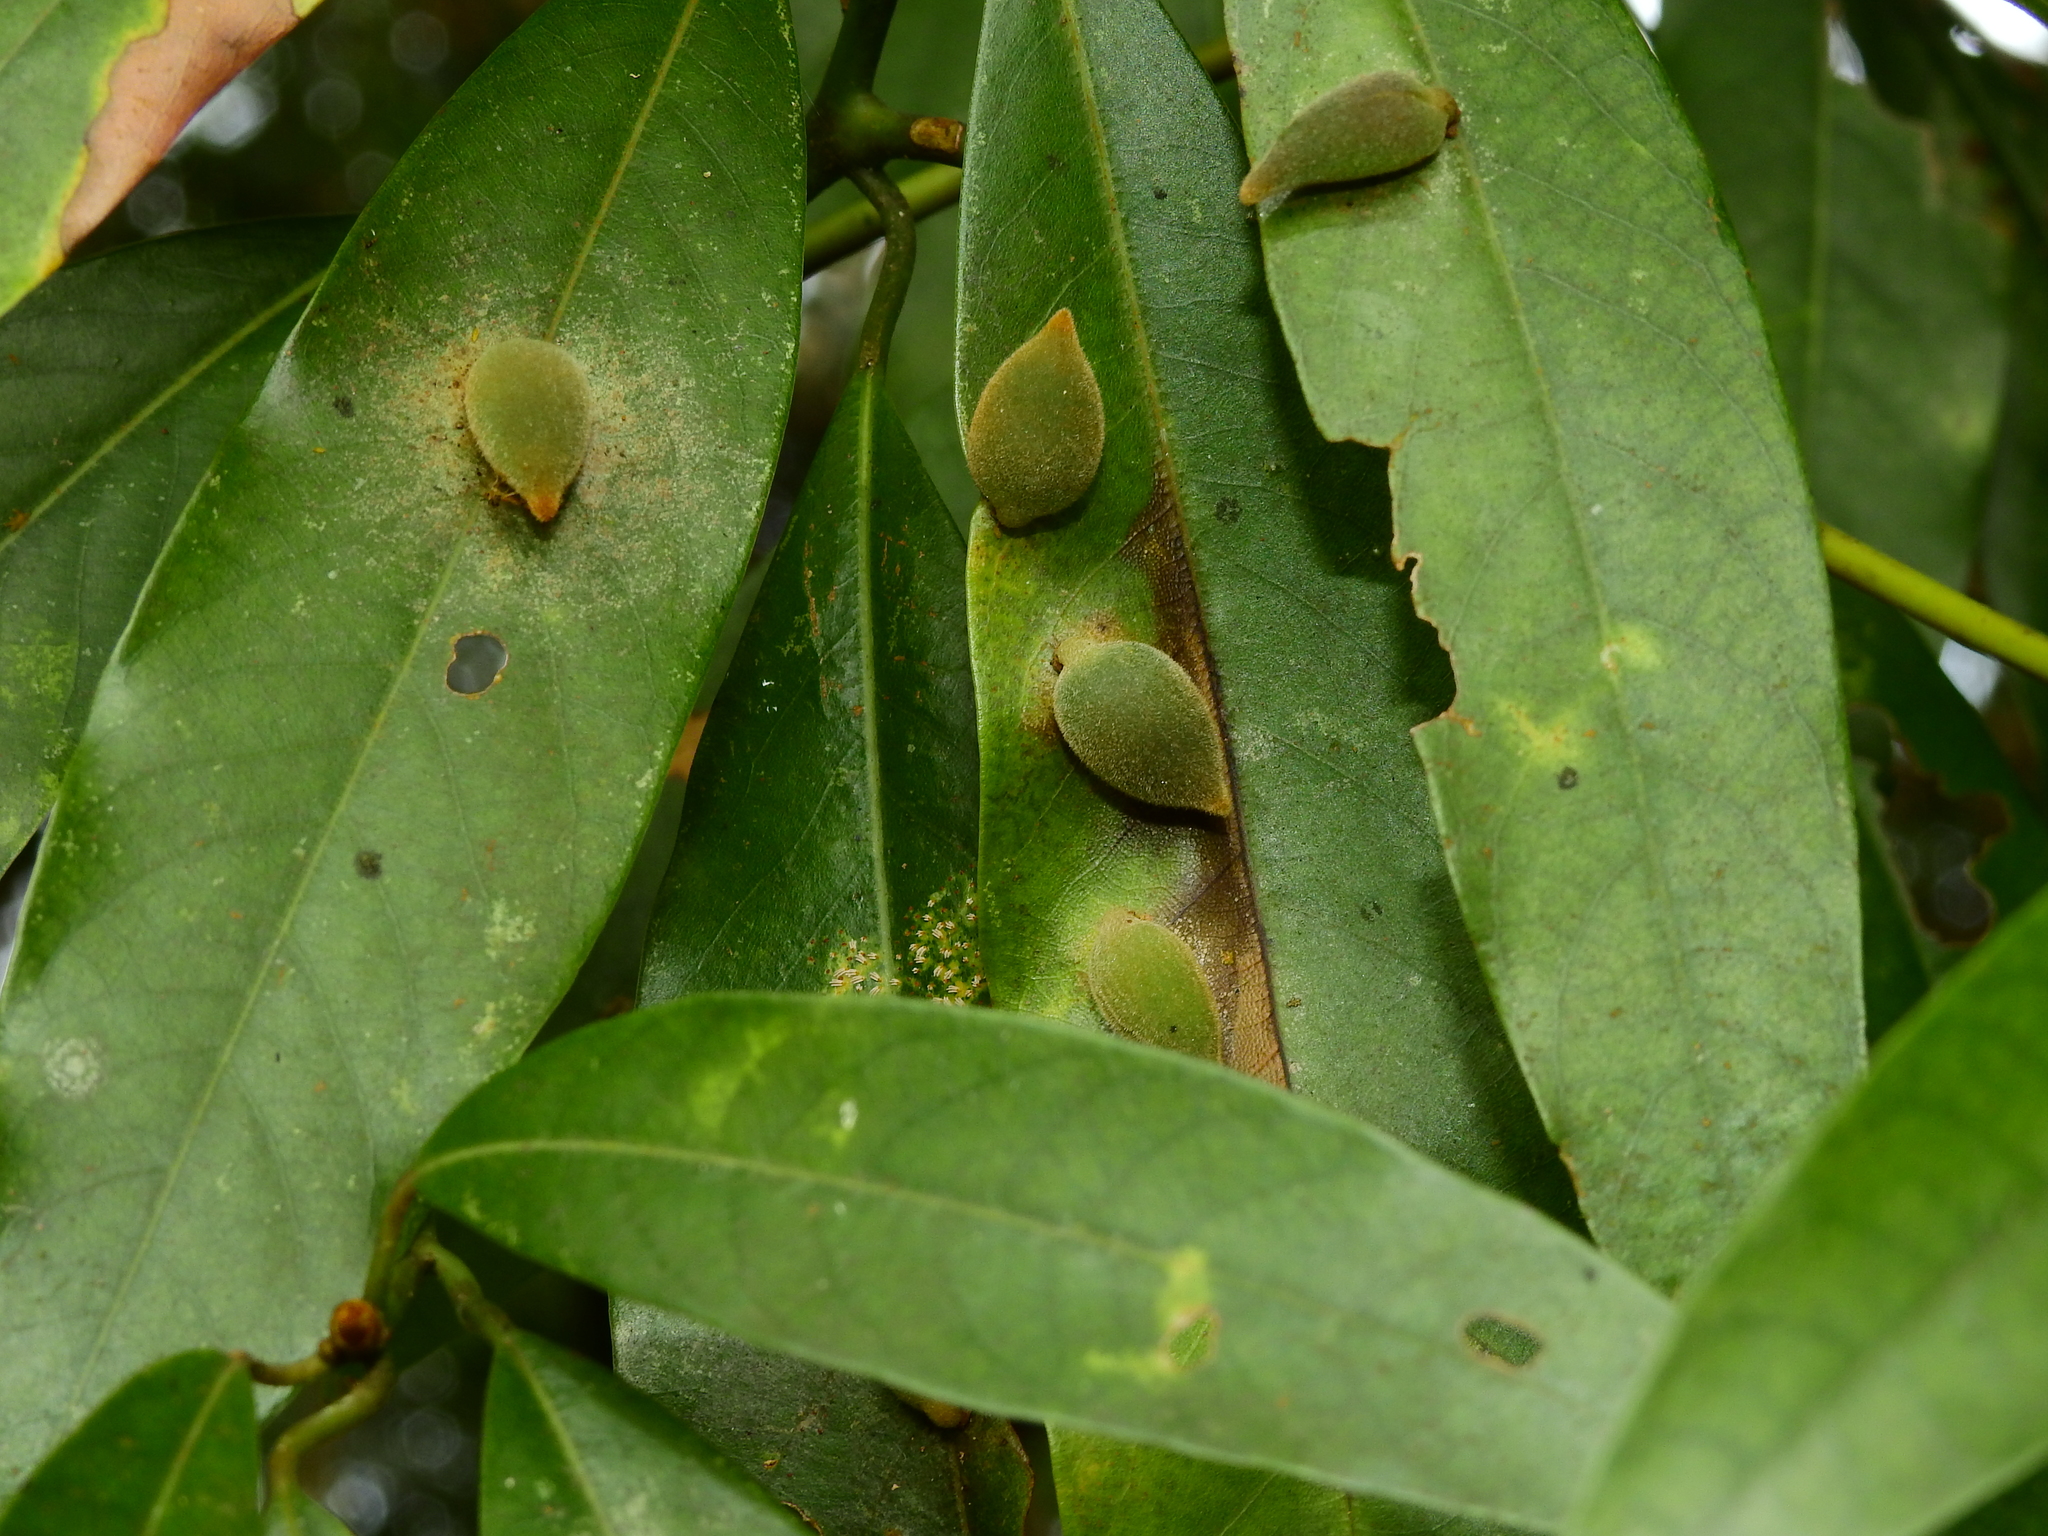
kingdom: Animalia
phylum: Arthropoda
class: Insecta
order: Diptera
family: Cecidomyiidae
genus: Daphnephila
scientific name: Daphnephila taiwanensis
